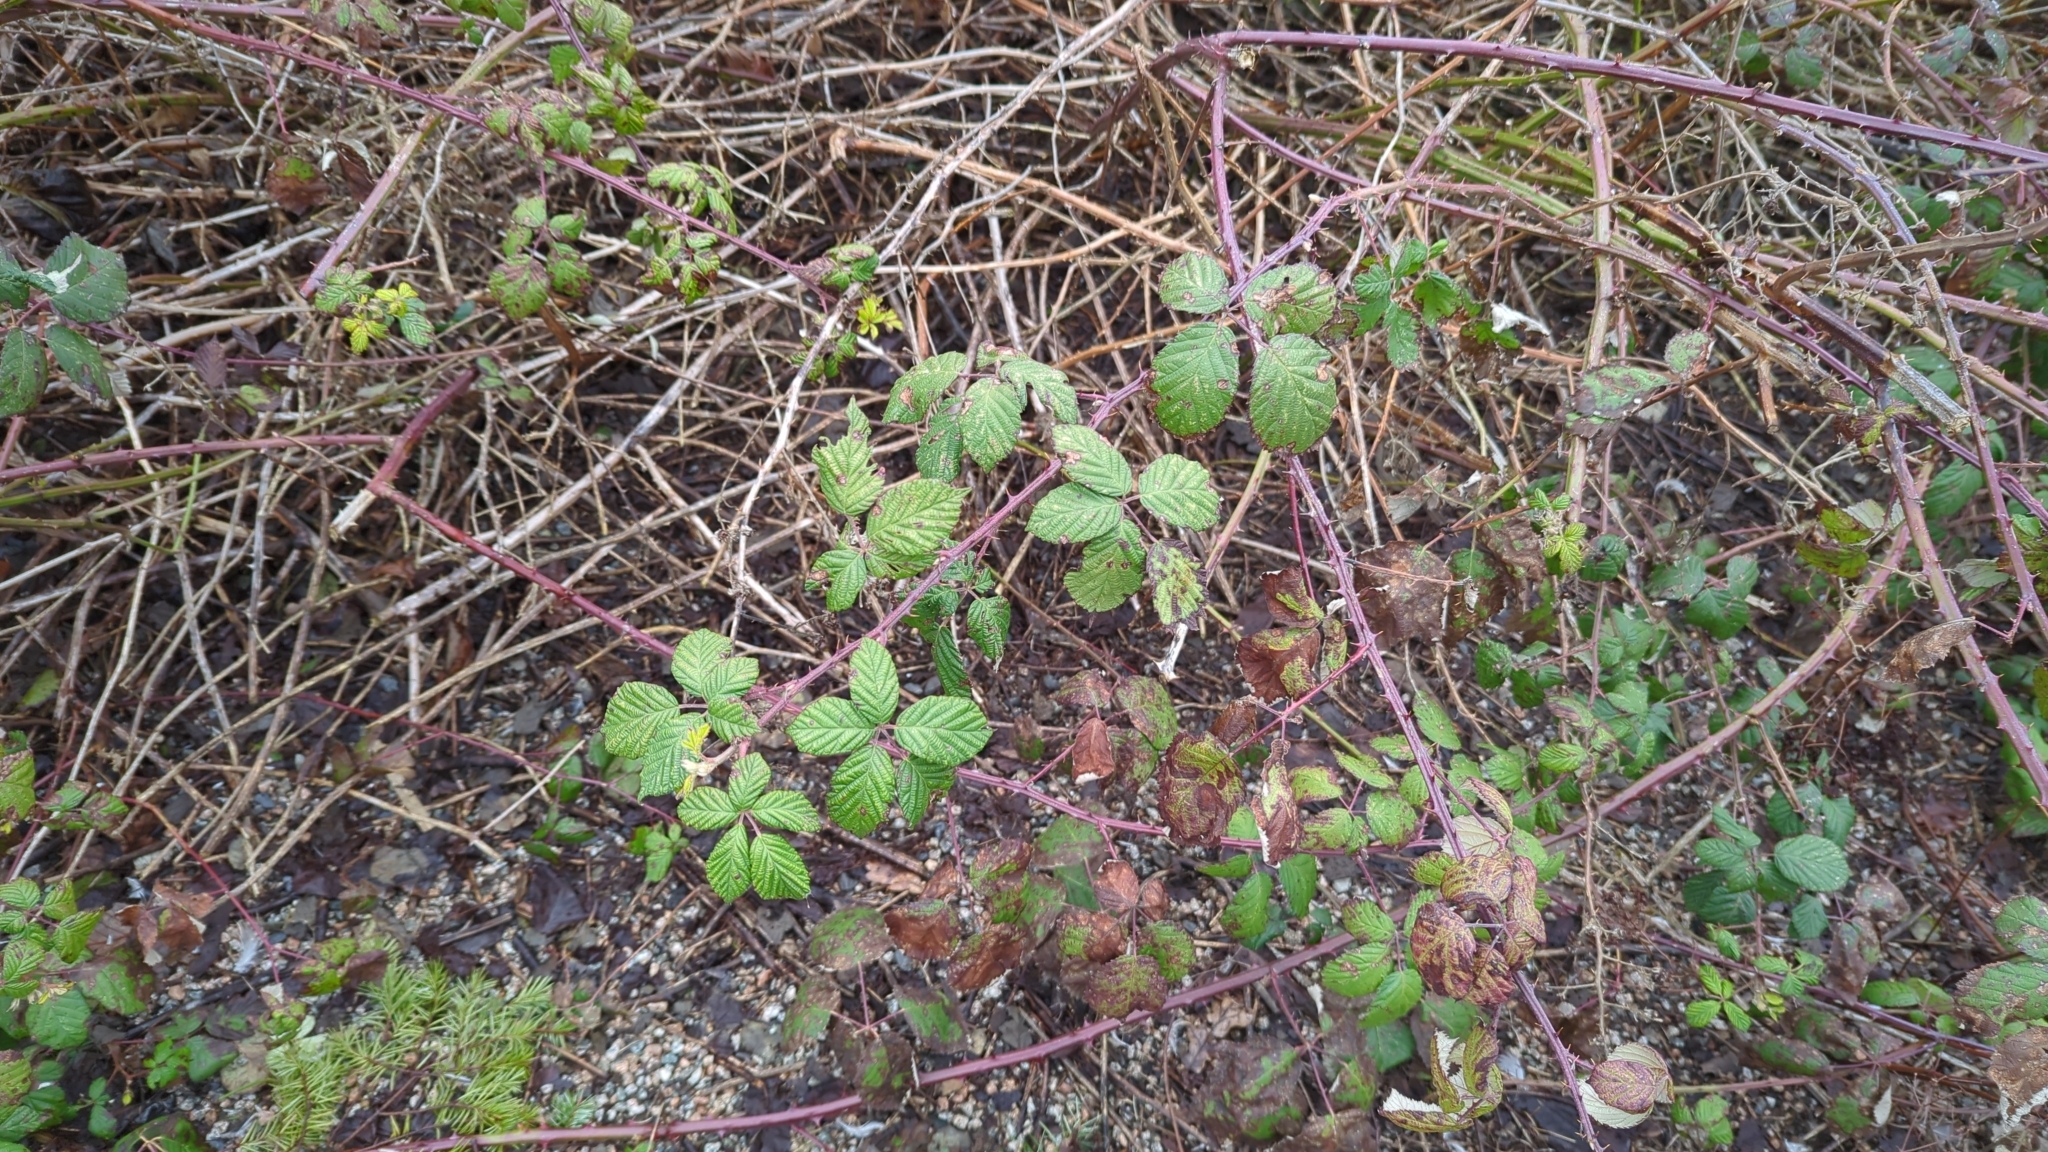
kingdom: Plantae
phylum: Tracheophyta
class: Magnoliopsida
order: Rosales
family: Rosaceae
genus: Rubus
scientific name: Rubus bifrons
